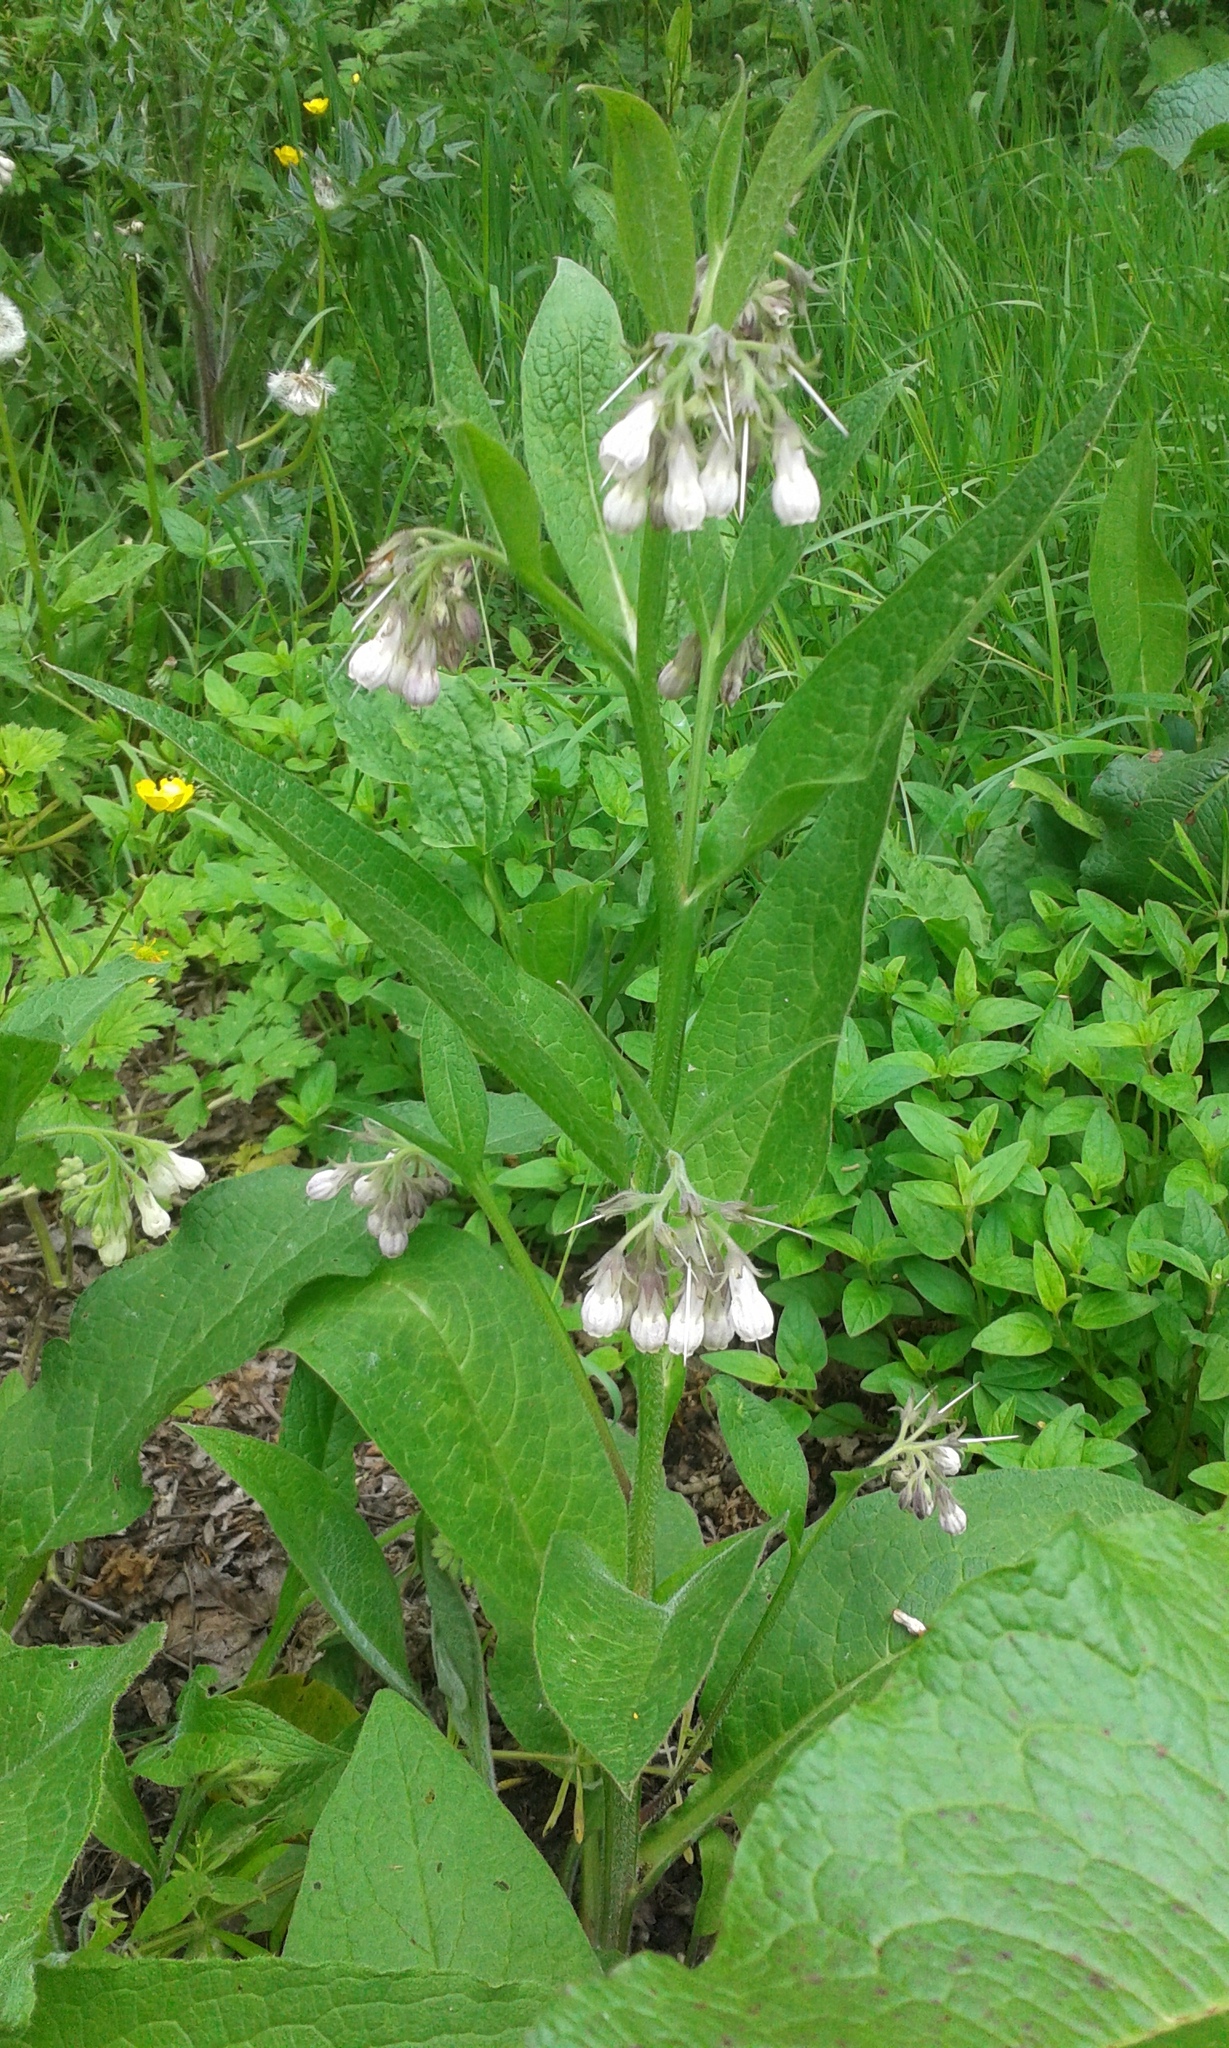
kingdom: Plantae
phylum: Tracheophyta
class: Magnoliopsida
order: Boraginales
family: Boraginaceae
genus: Symphytum
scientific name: Symphytum officinale
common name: Common comfrey
